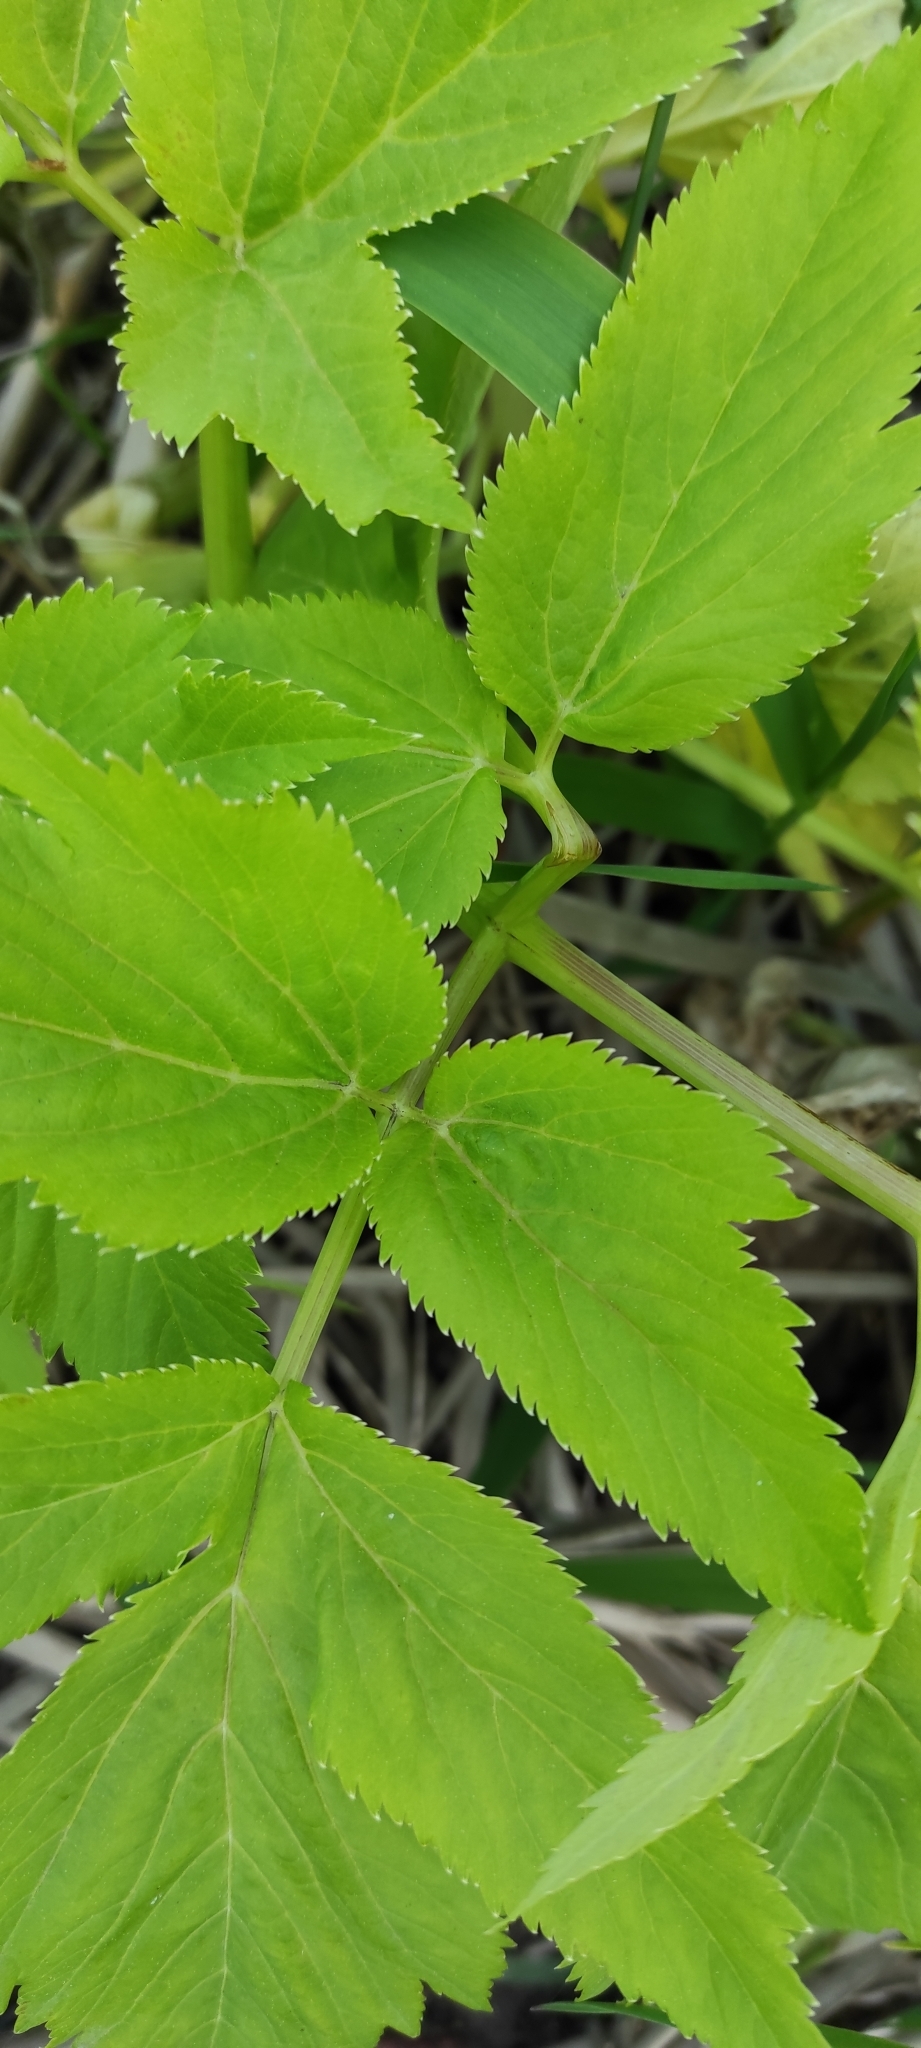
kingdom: Plantae
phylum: Tracheophyta
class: Magnoliopsida
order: Apiales
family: Apiaceae
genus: Angelica
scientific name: Angelica archangelica
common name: Garden angelica
